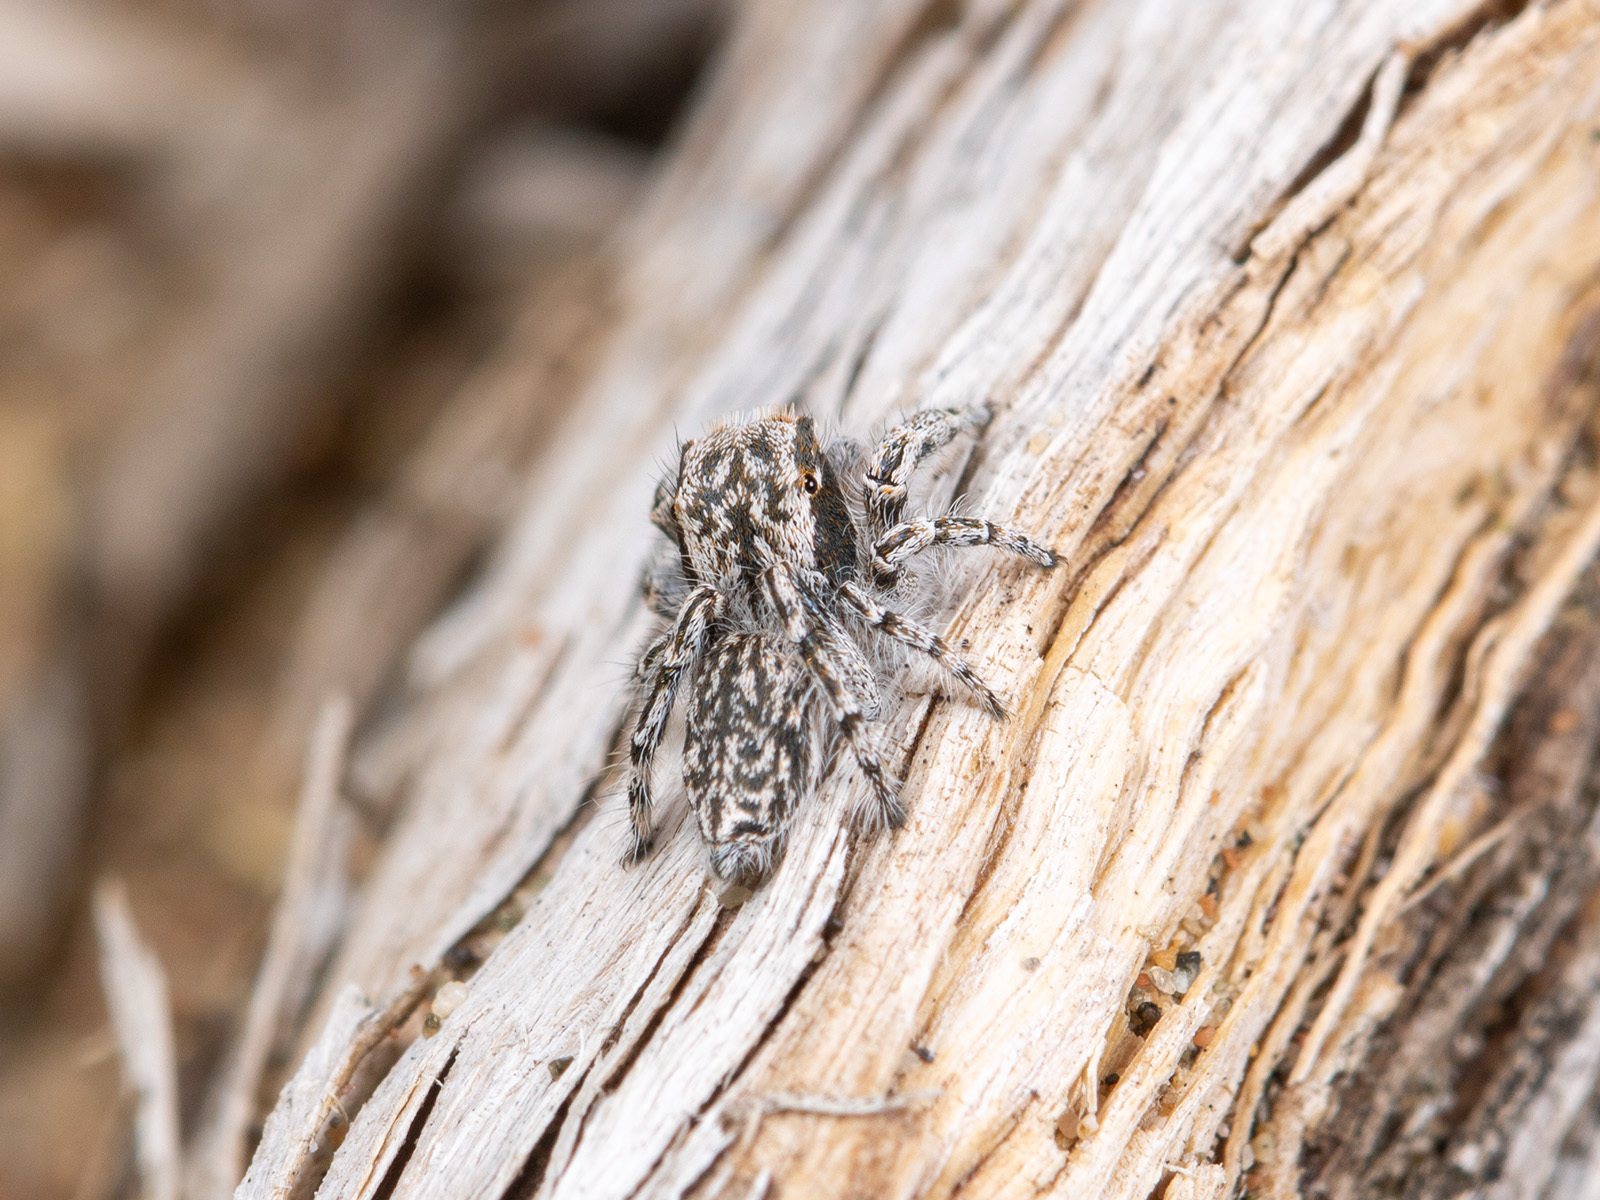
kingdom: Animalia
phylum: Arthropoda
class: Arachnida
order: Araneae
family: Salticidae
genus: Marusyllus
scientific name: Marusyllus aralicus
